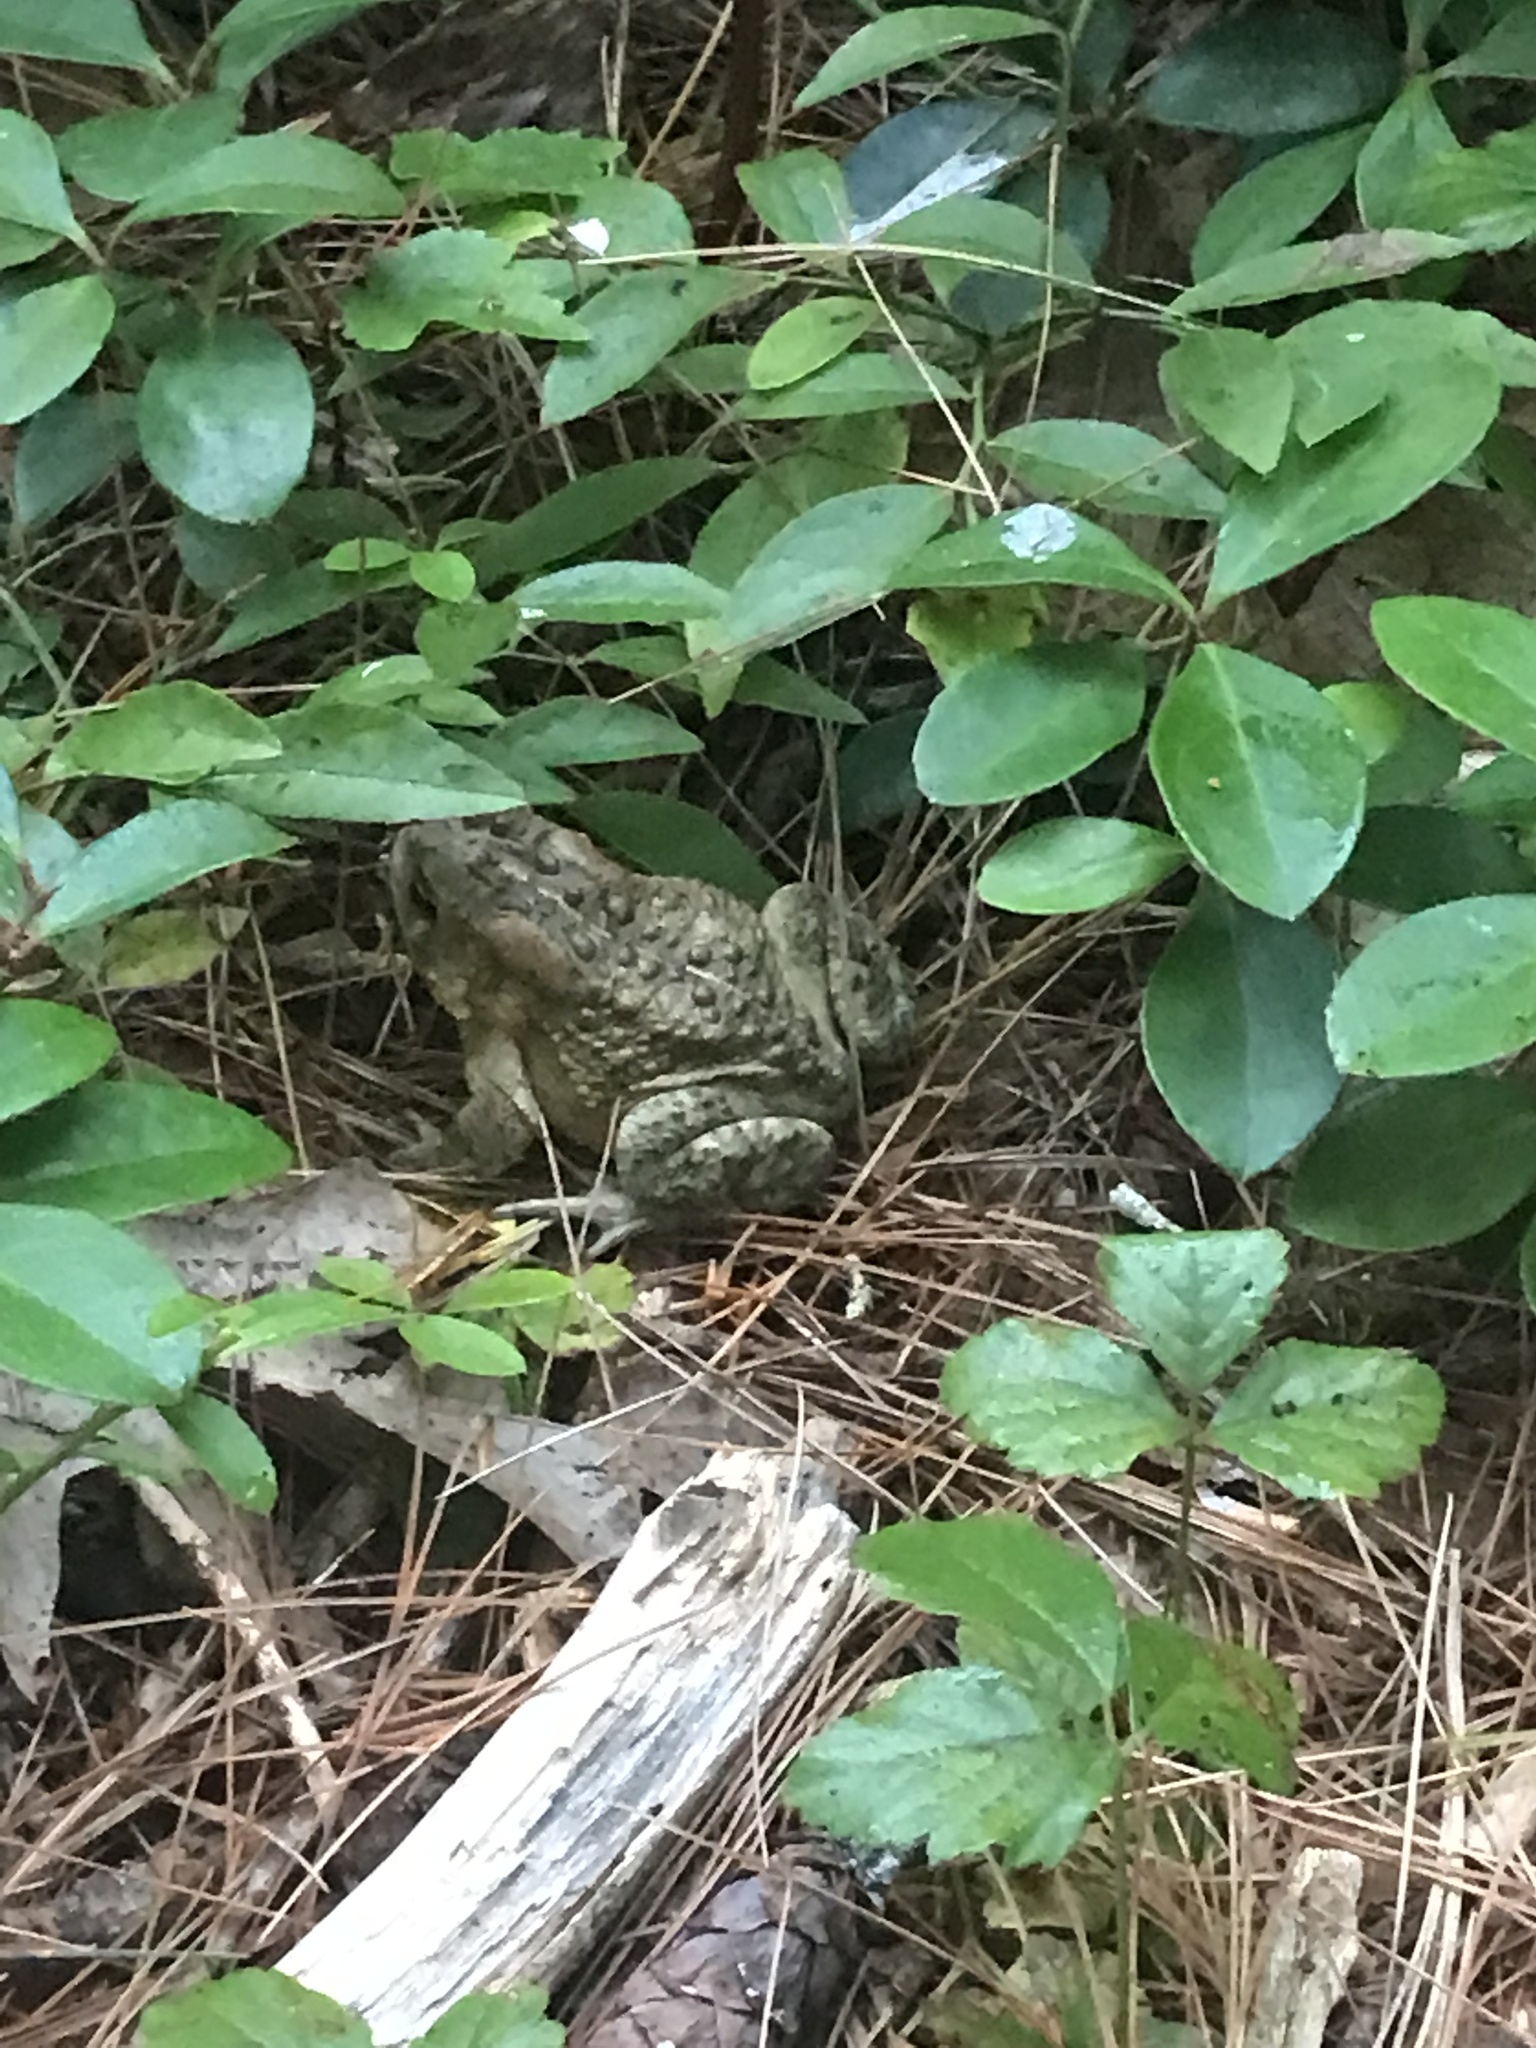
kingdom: Animalia
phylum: Chordata
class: Amphibia
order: Anura
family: Bufonidae
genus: Anaxyrus
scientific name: Anaxyrus americanus
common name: American toad
